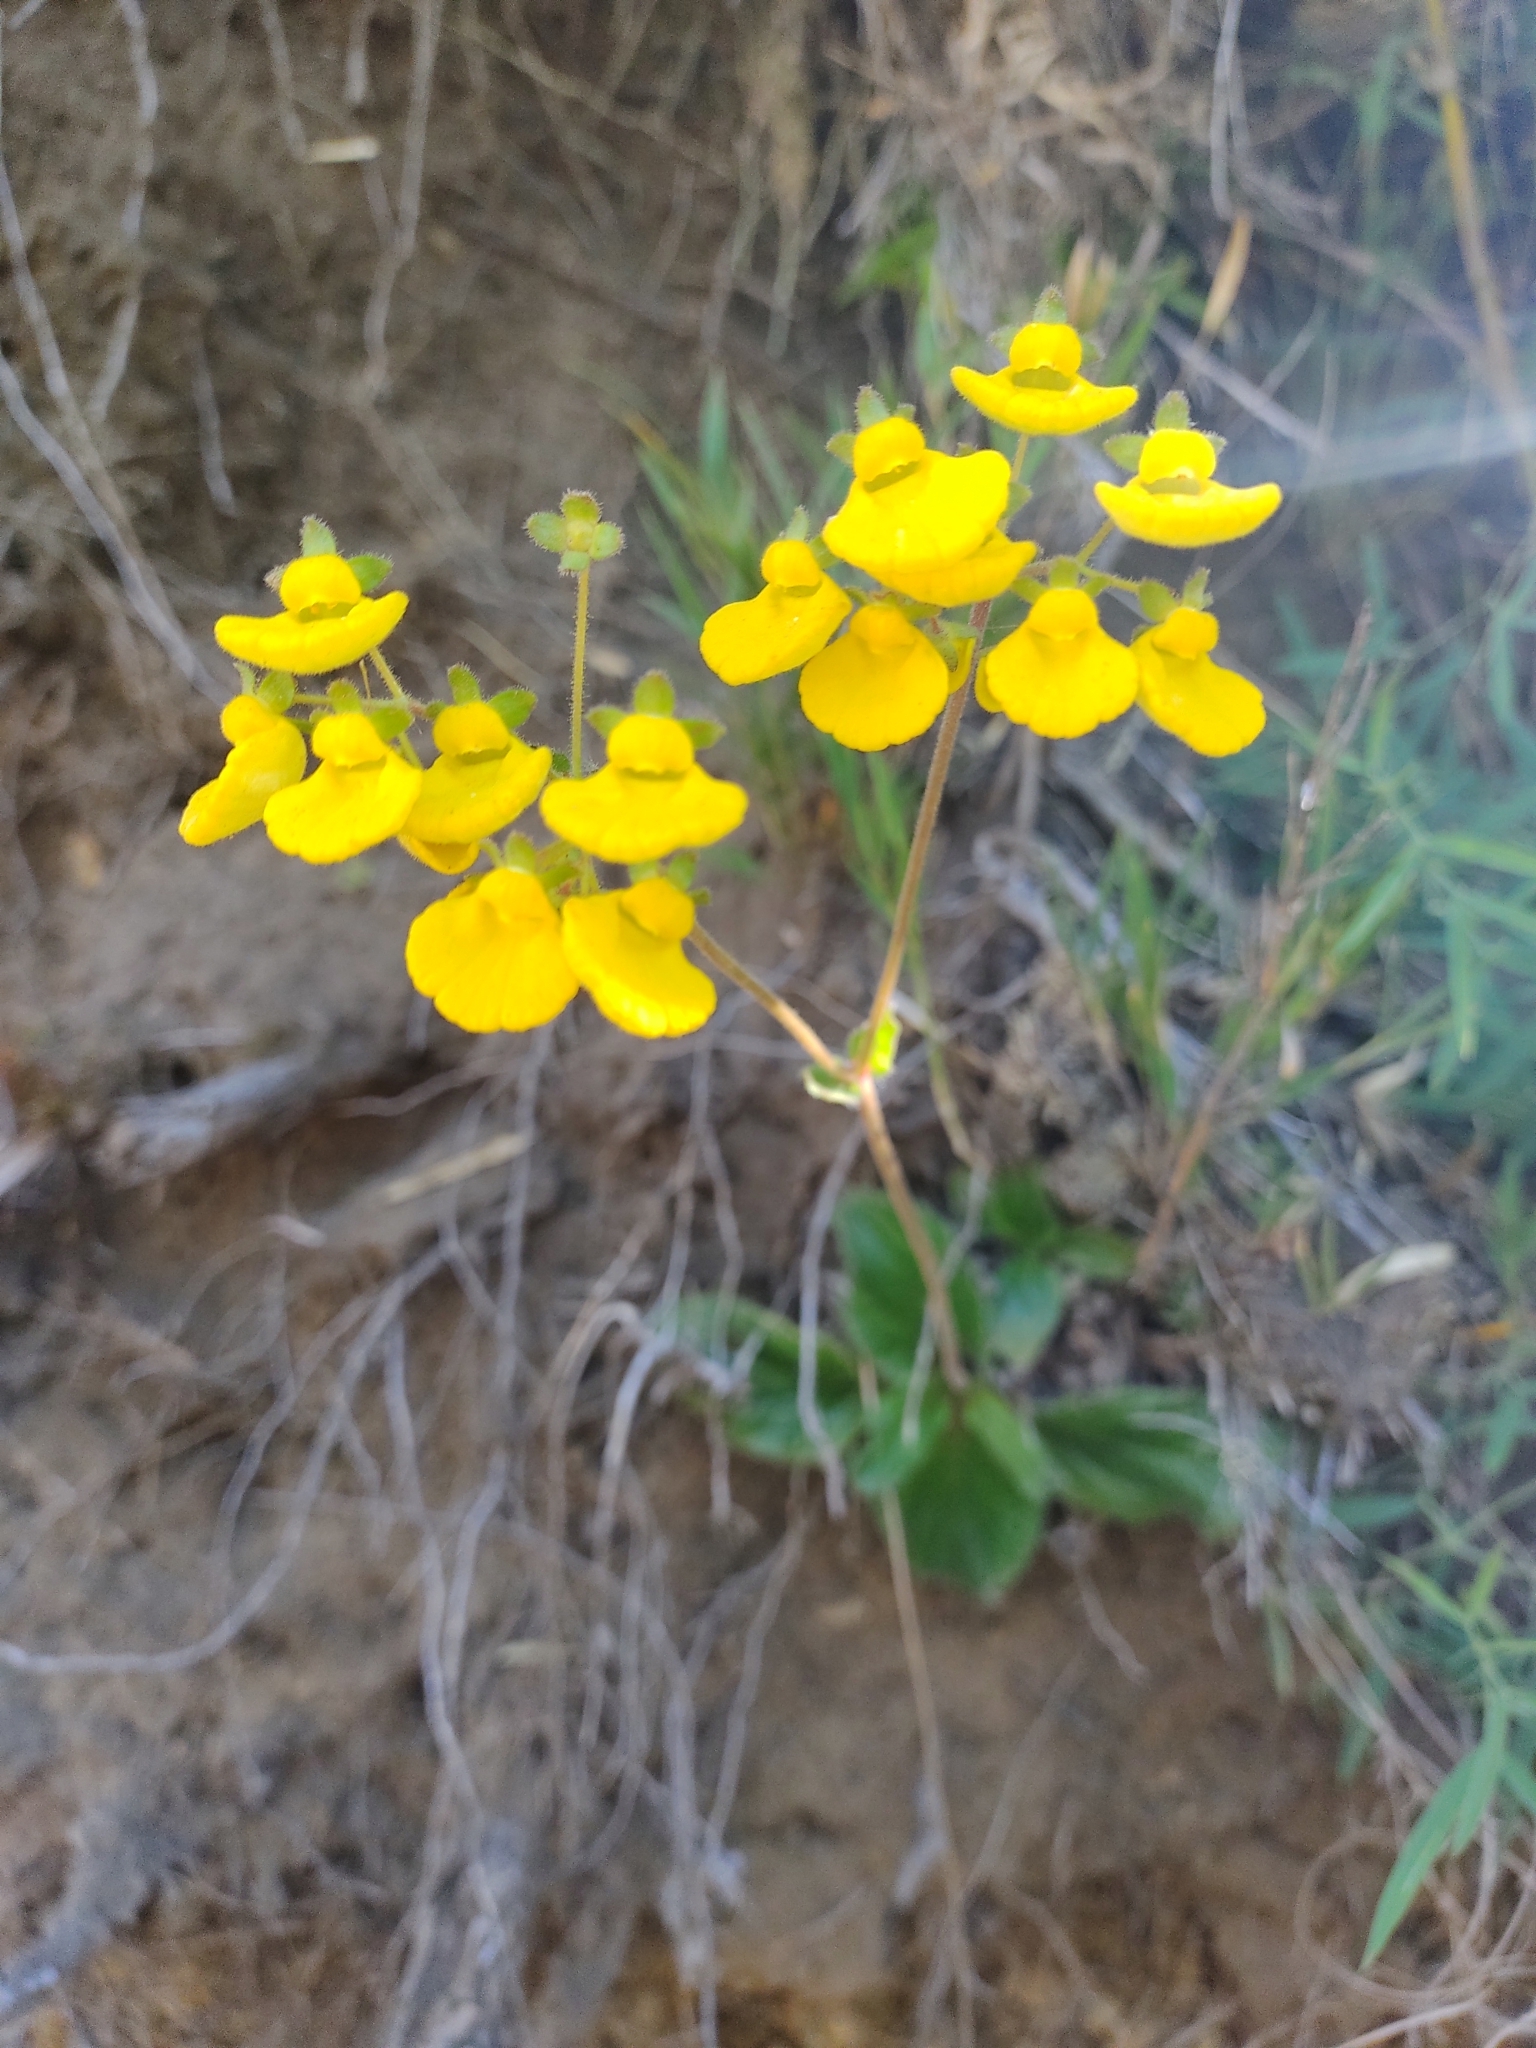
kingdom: Plantae
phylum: Tracheophyta
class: Magnoliopsida
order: Lamiales
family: Calceolariaceae
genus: Calceolaria
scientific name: Calceolaria valdiviana
